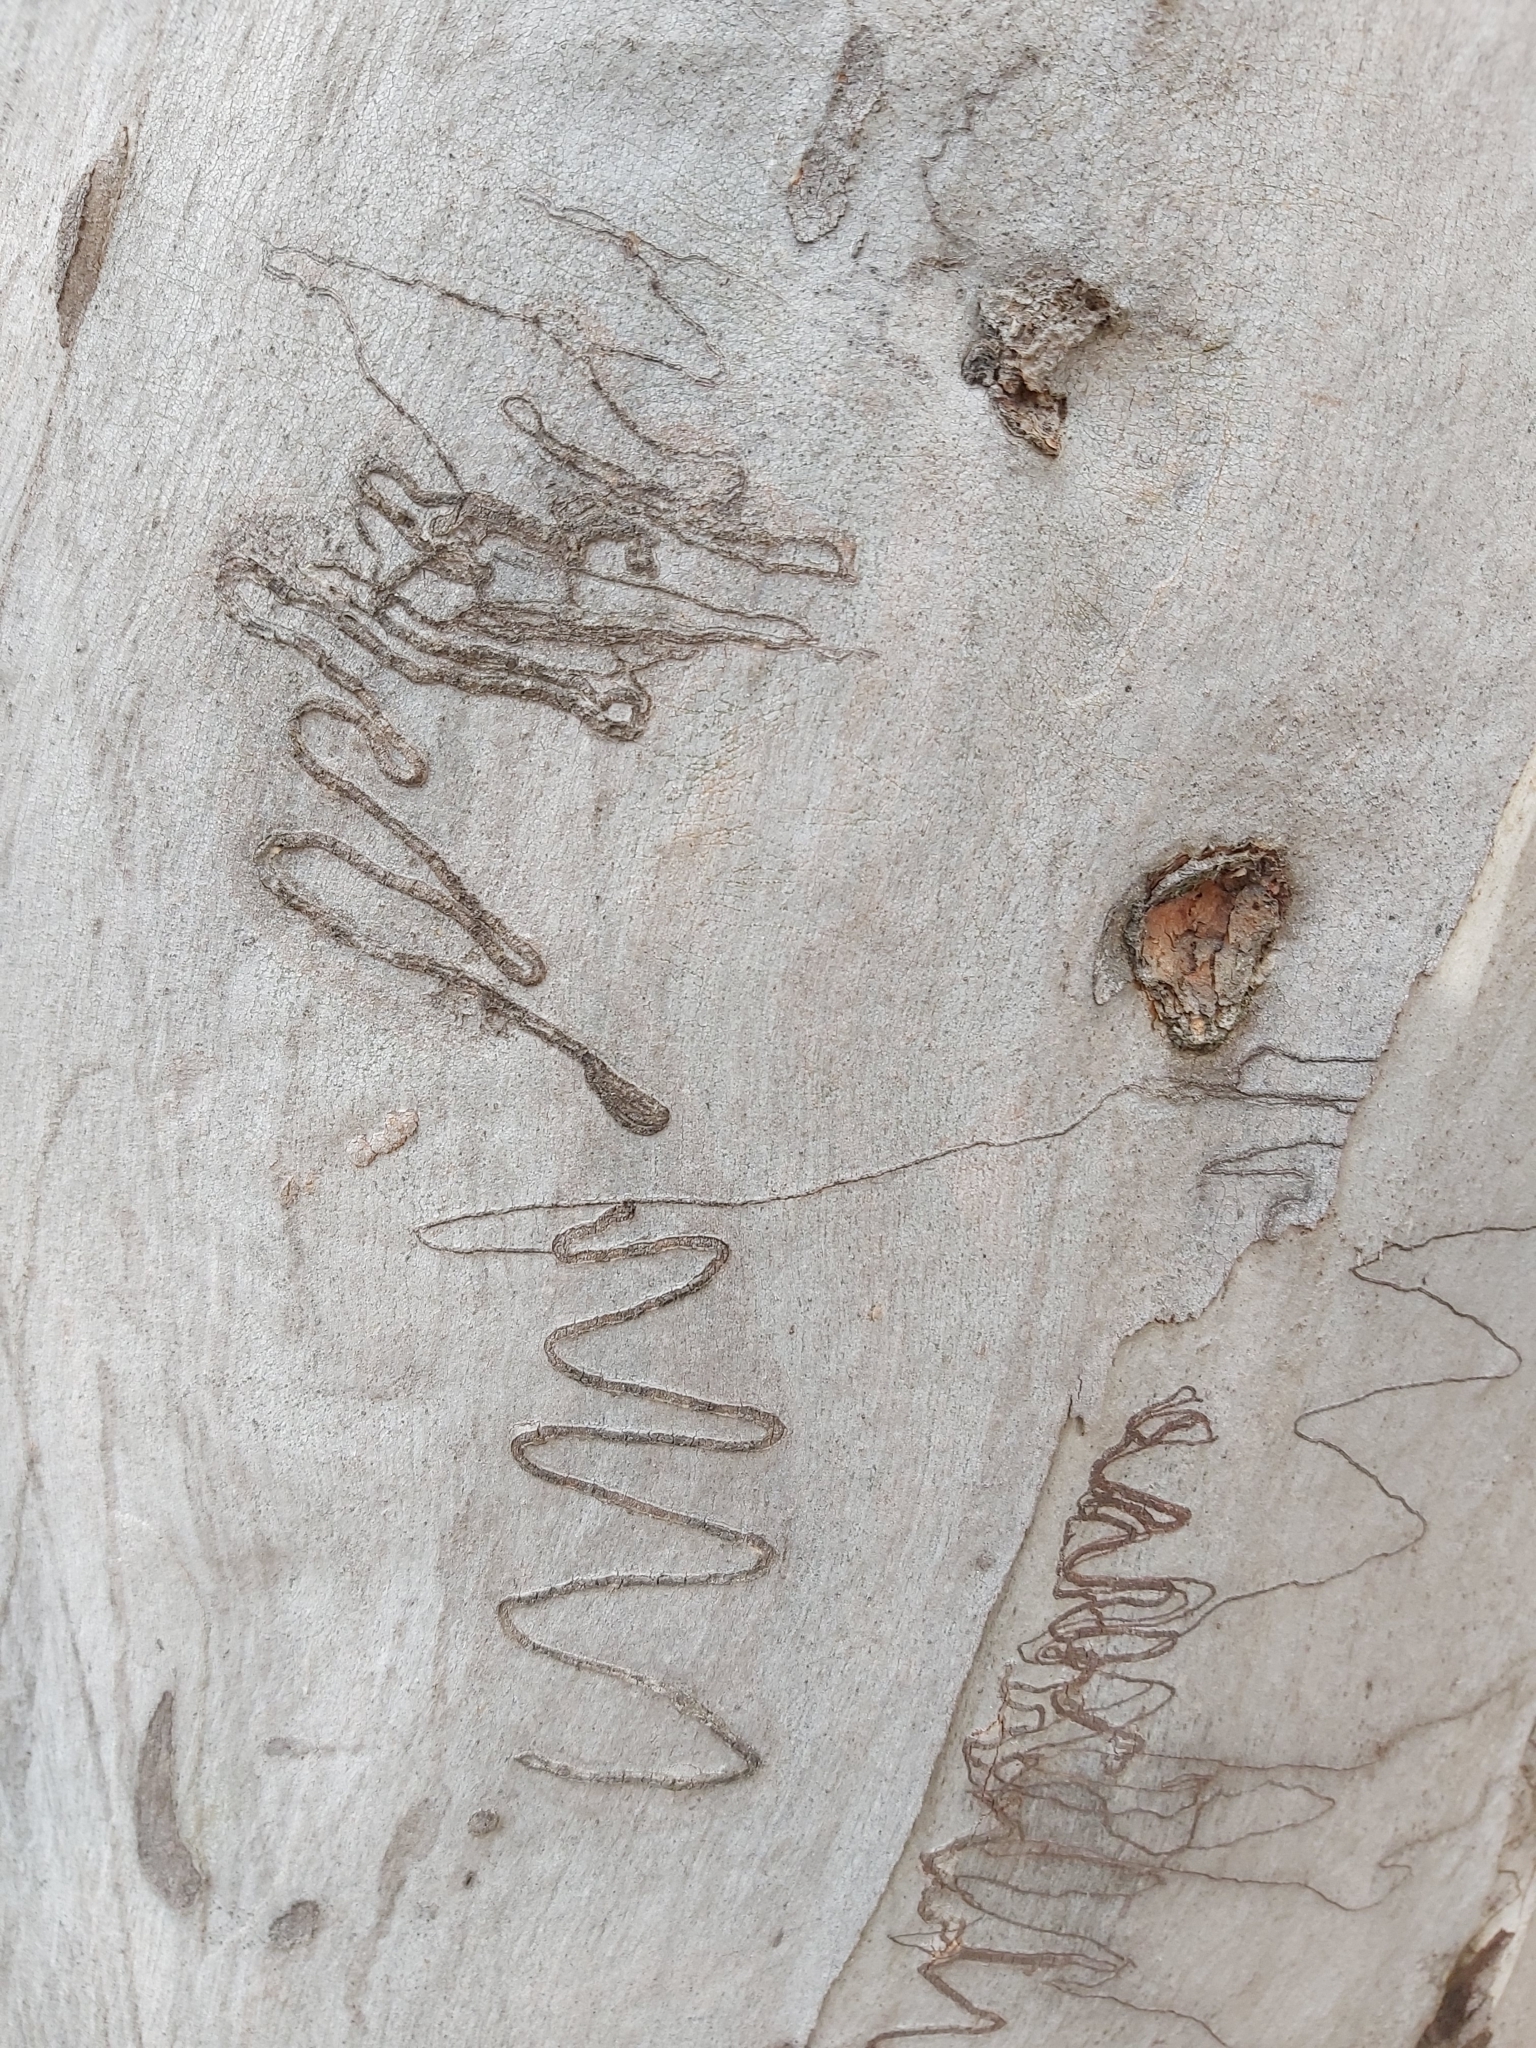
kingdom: Animalia
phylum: Arthropoda
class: Insecta
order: Lepidoptera
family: Bucculatricidae
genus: Ogmograptis
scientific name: Ogmograptis scribula
